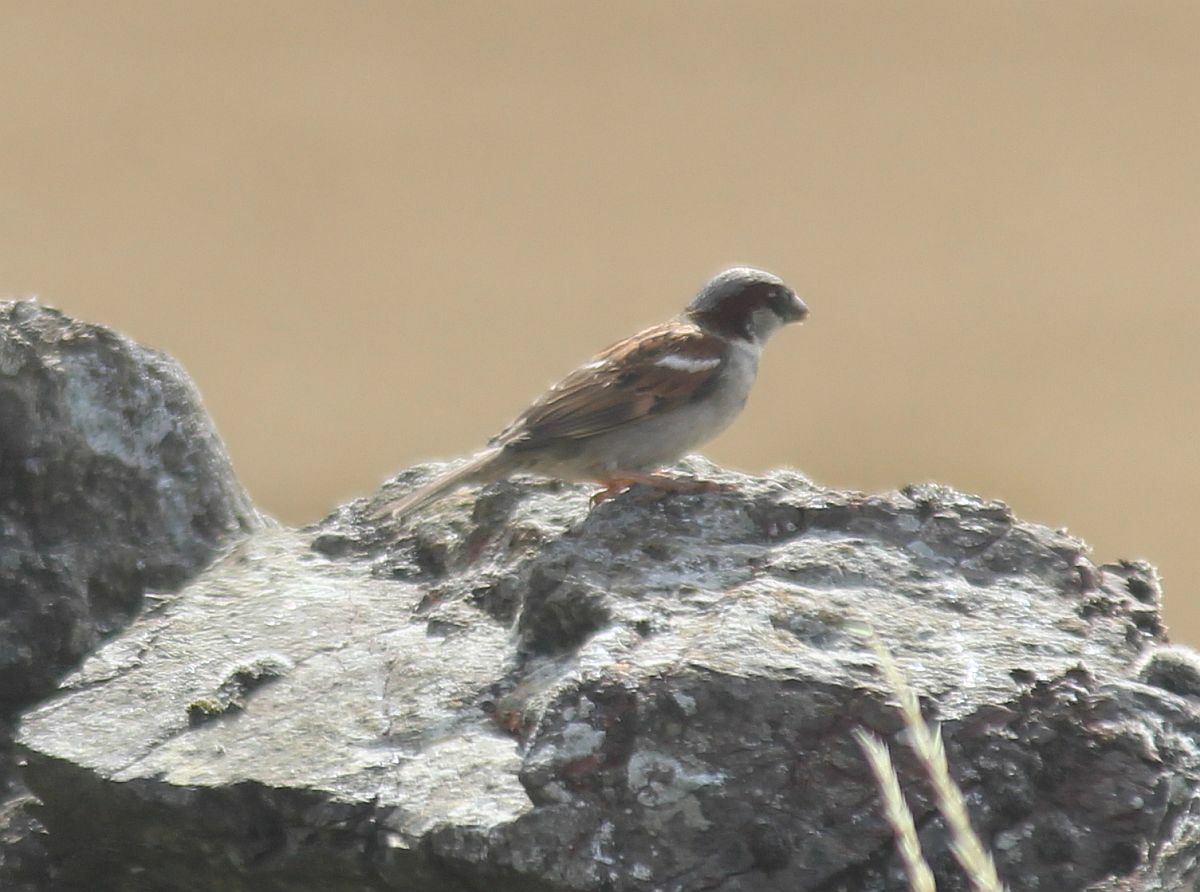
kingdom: Animalia
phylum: Chordata
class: Aves
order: Passeriformes
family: Passeridae
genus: Passer
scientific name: Passer domesticus
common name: House sparrow
